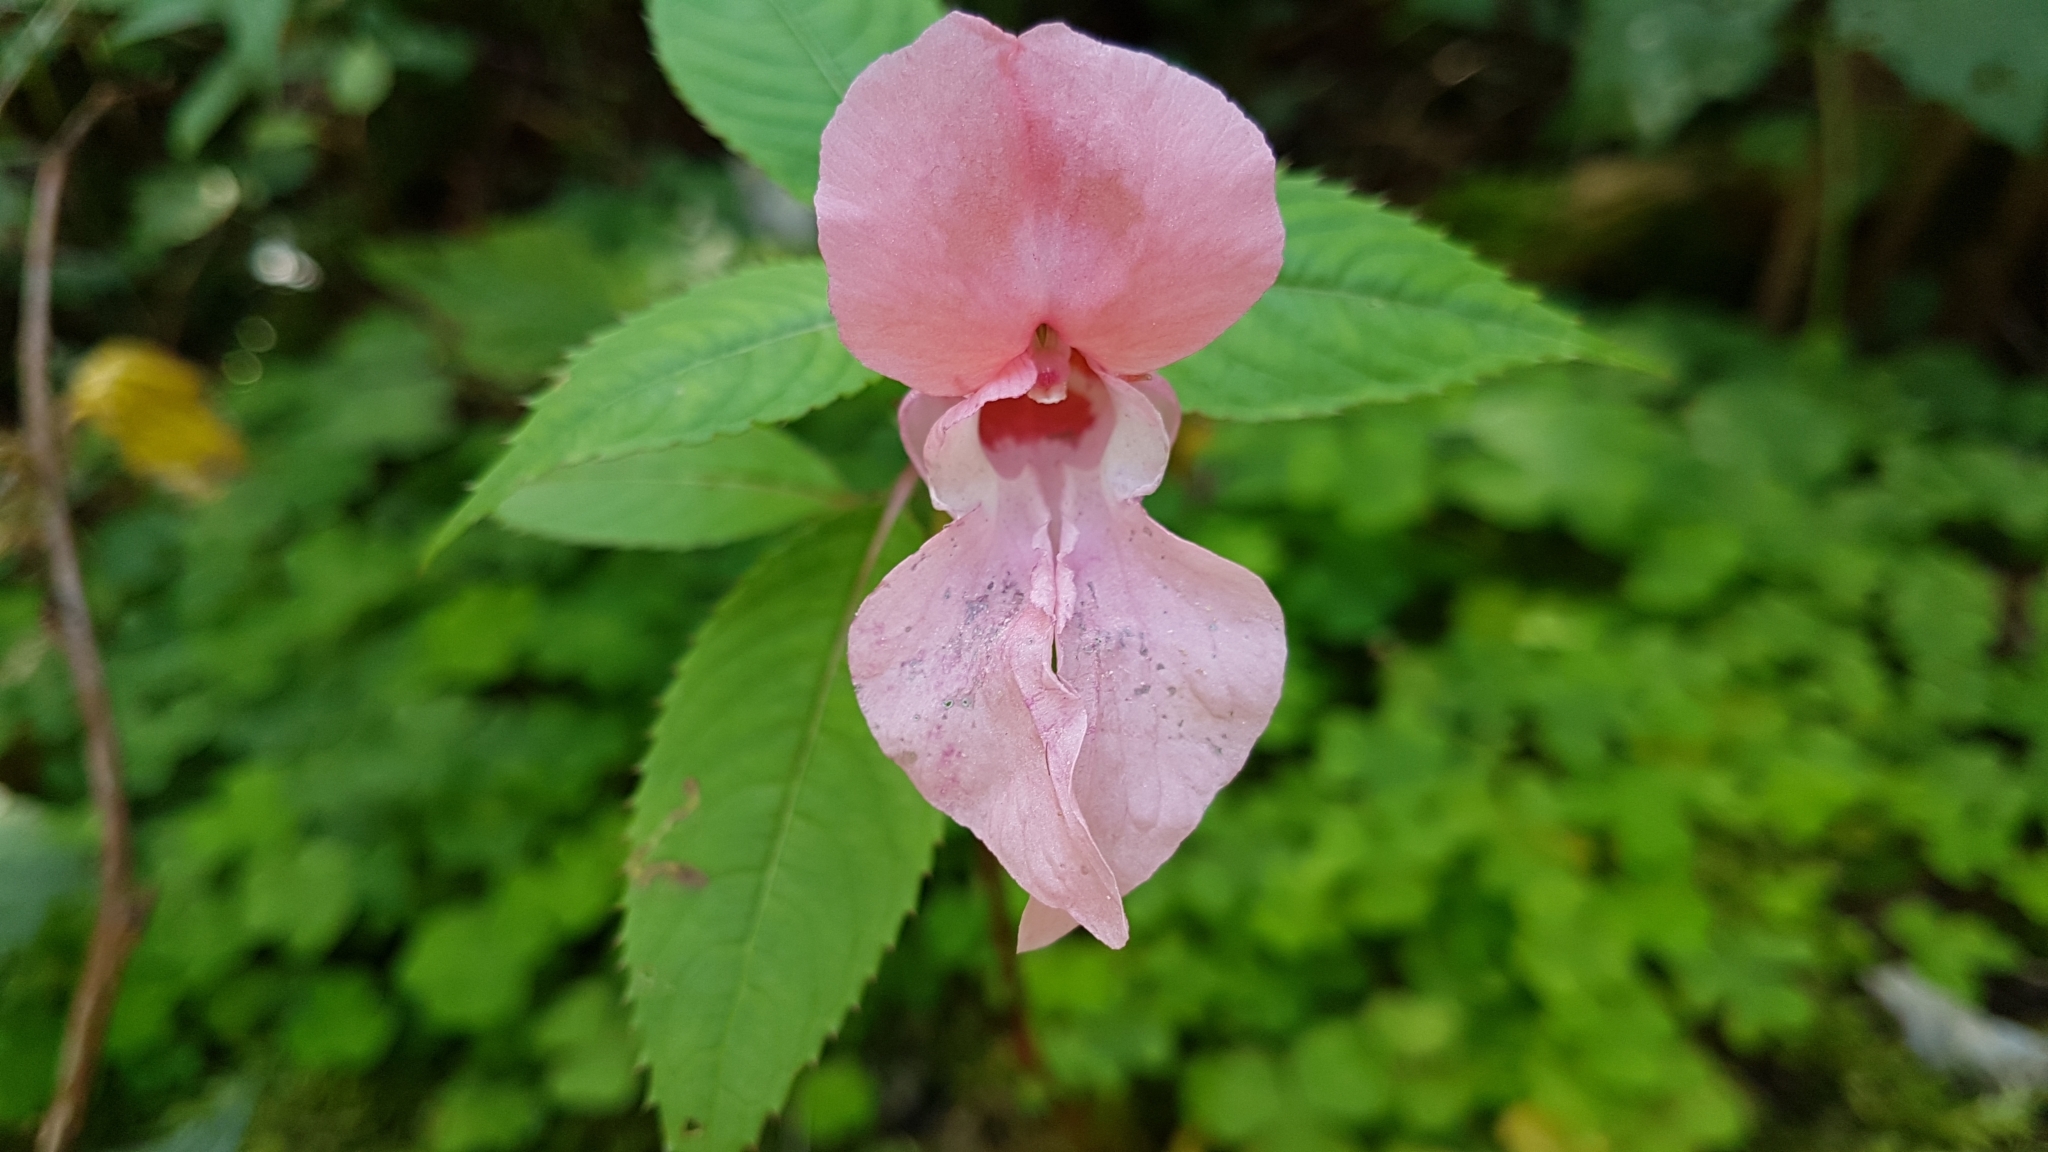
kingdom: Plantae
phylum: Tracheophyta
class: Magnoliopsida
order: Ericales
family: Balsaminaceae
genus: Impatiens
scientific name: Impatiens glandulifera
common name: Himalayan balsam
